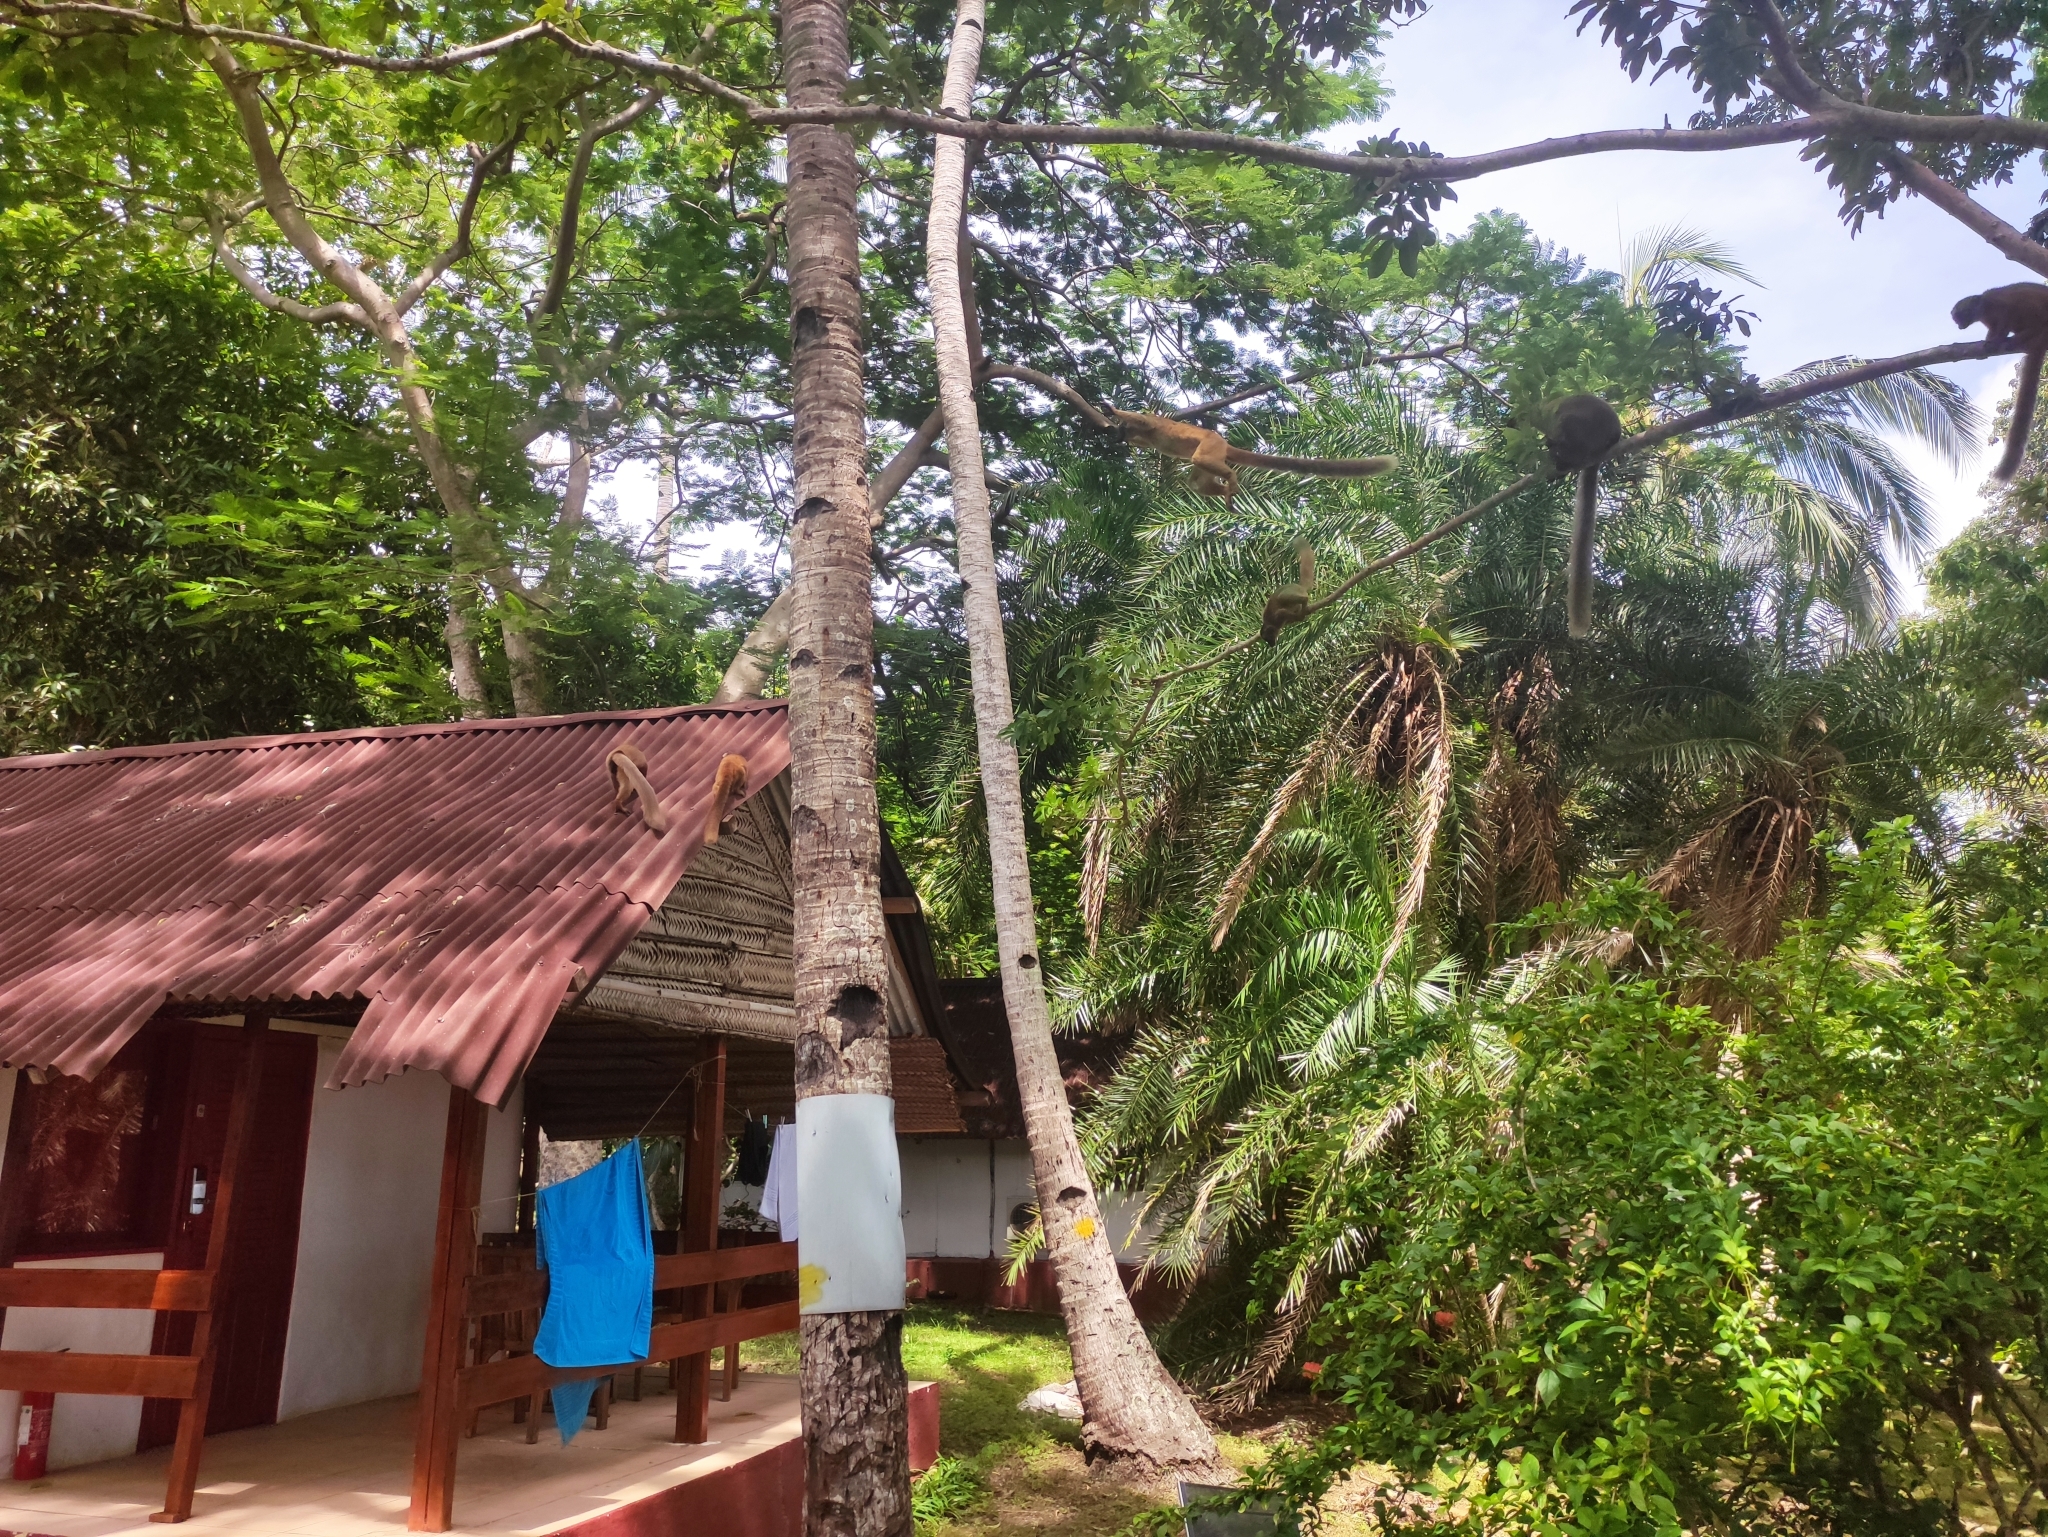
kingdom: Animalia
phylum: Chordata
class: Mammalia
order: Primates
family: Lemuridae
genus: Eulemur
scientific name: Eulemur fulvus
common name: Brown lemur
